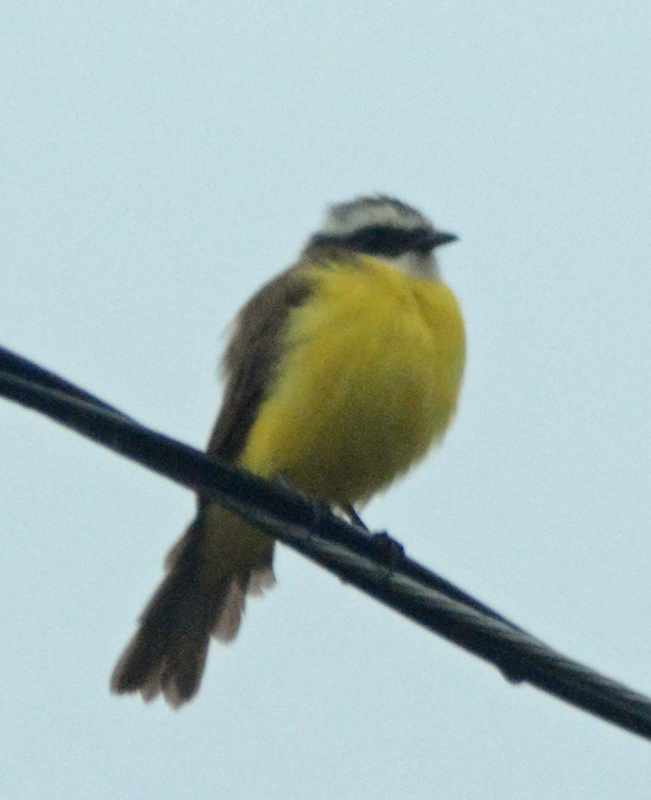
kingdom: Animalia
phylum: Chordata
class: Aves
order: Passeriformes
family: Tyrannidae
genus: Myiozetetes
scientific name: Myiozetetes similis
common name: Social flycatcher
